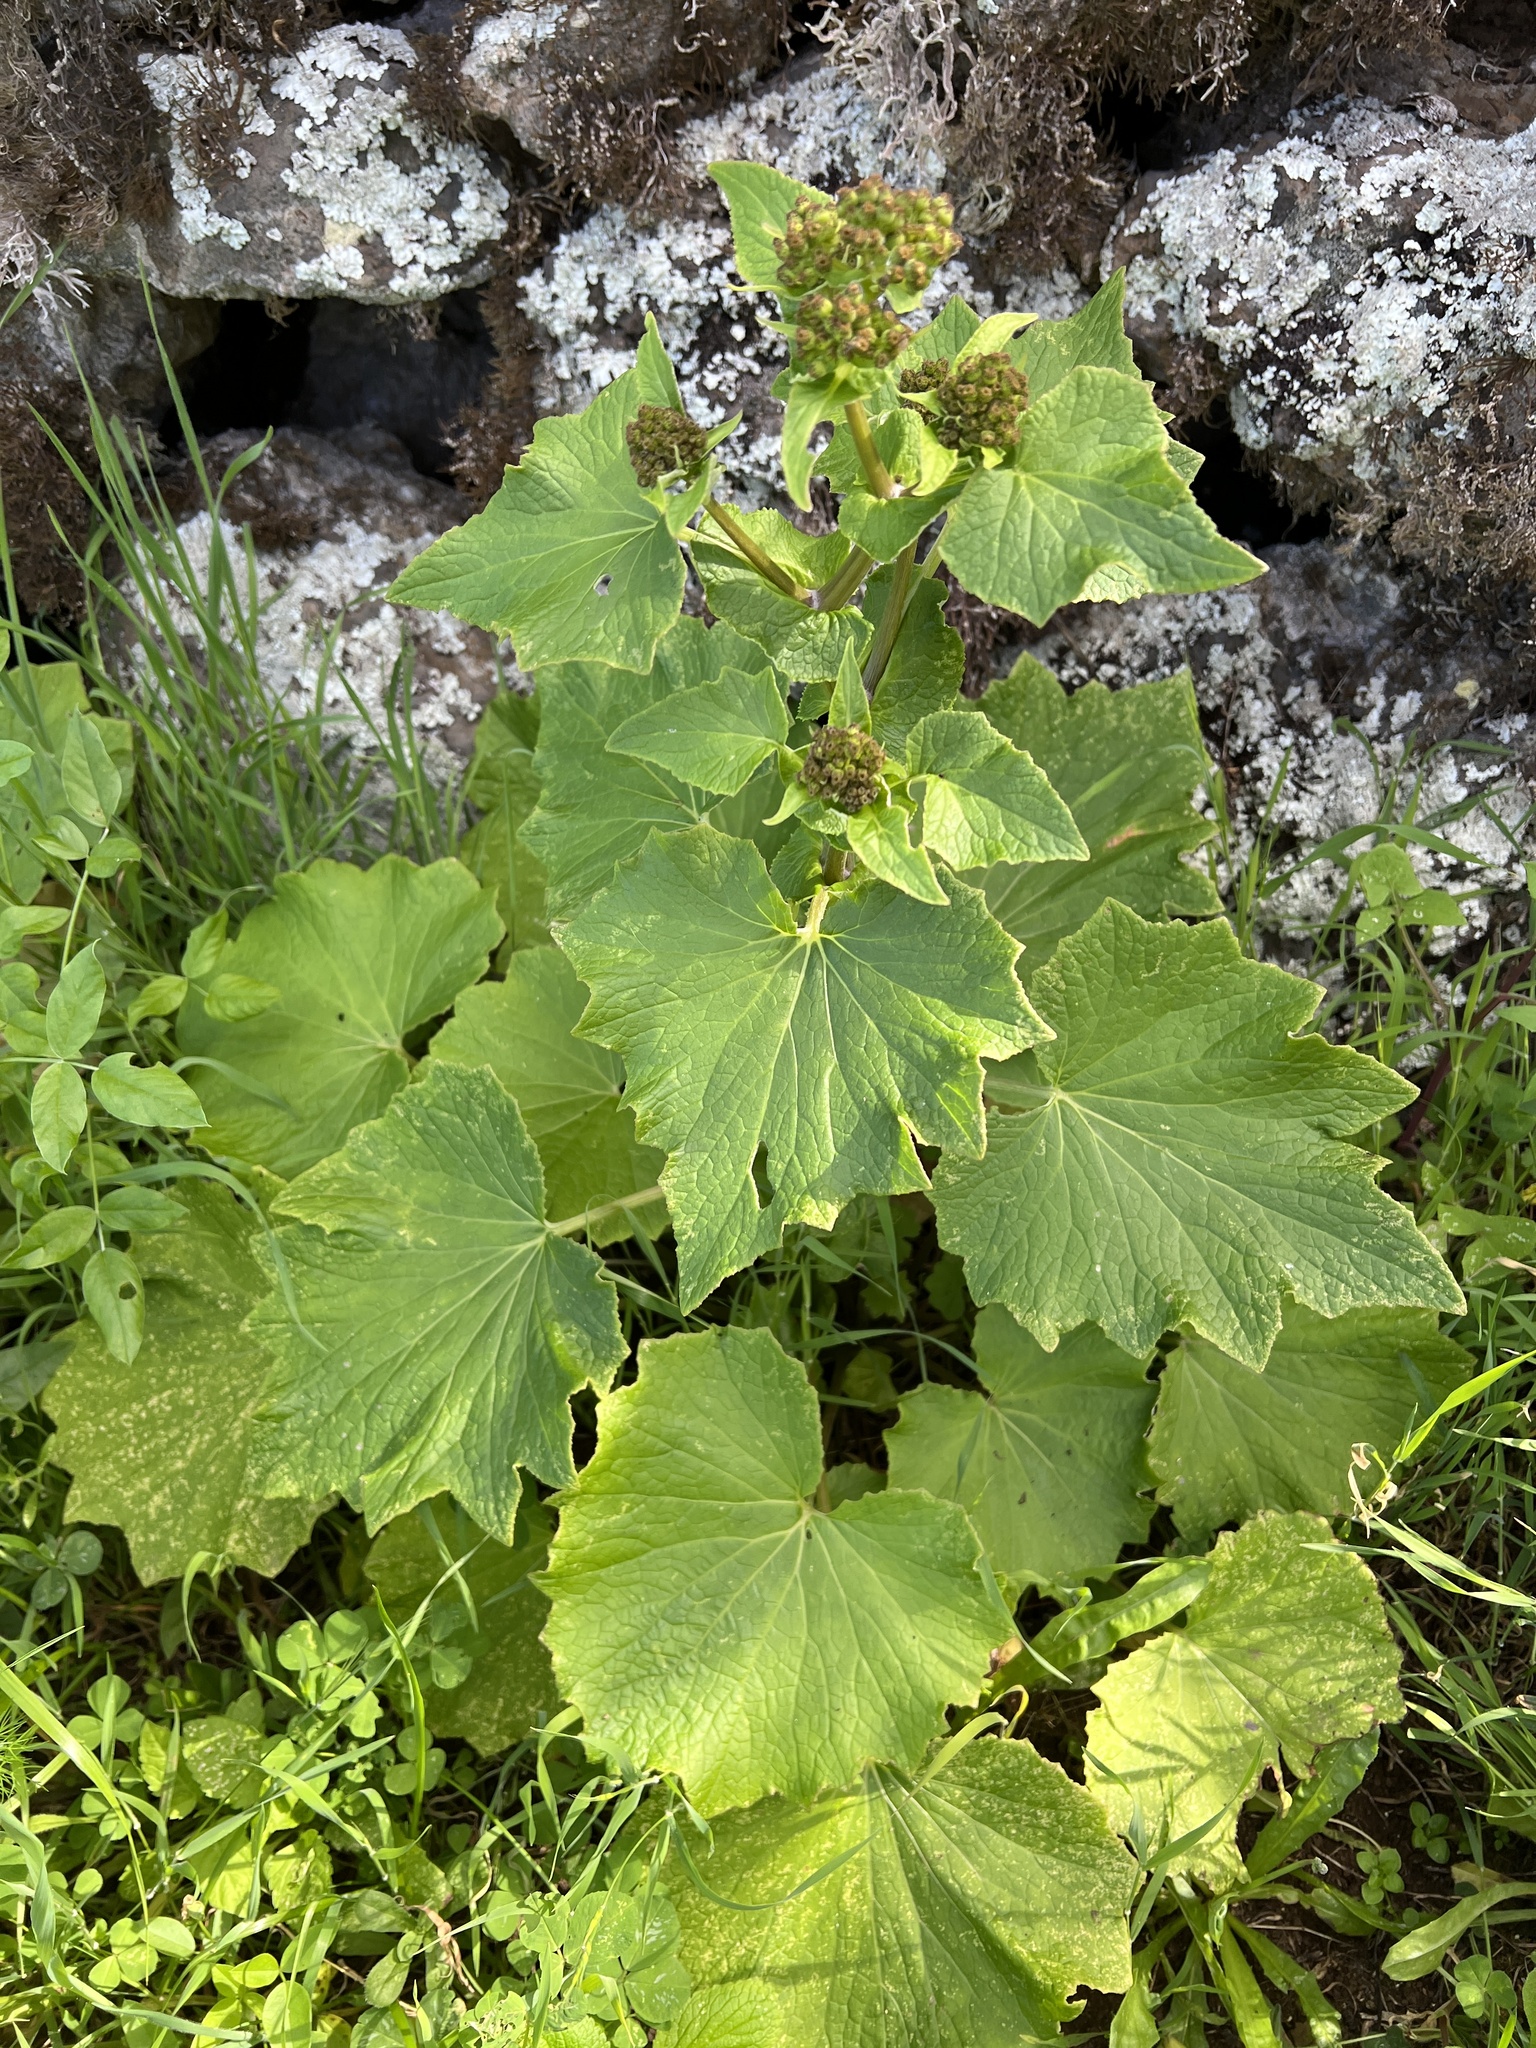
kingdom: Plantae
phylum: Tracheophyta
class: Magnoliopsida
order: Asterales
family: Asteraceae
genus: Pericallis
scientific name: Pericallis murrayi
